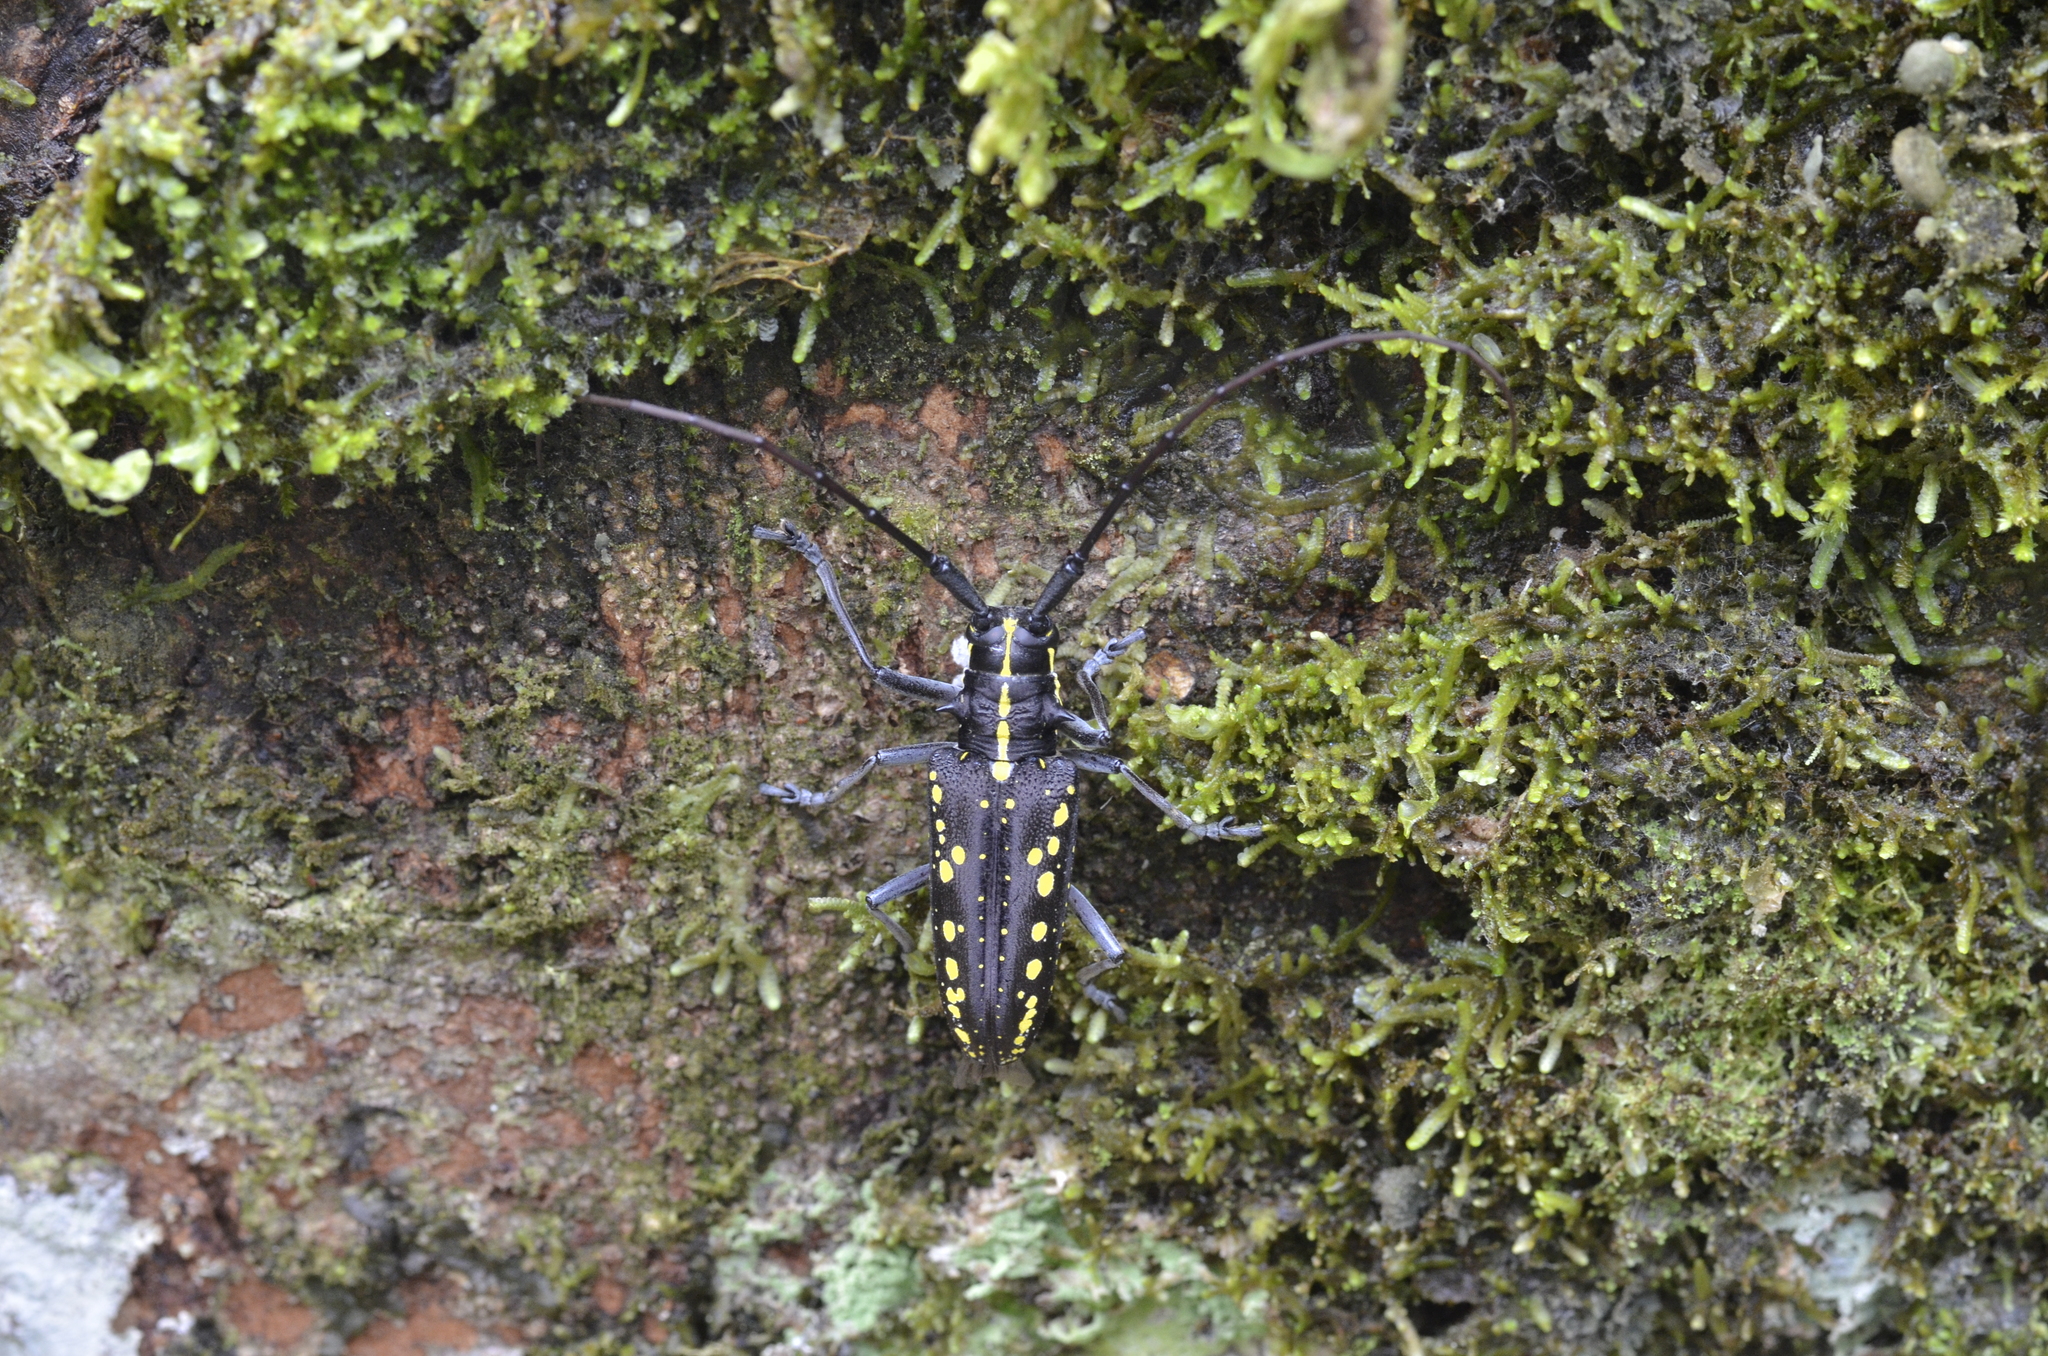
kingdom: Animalia
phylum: Arthropoda
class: Insecta
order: Coleoptera
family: Cerambycidae
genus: Taeniotes
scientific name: Taeniotes orbignyi
